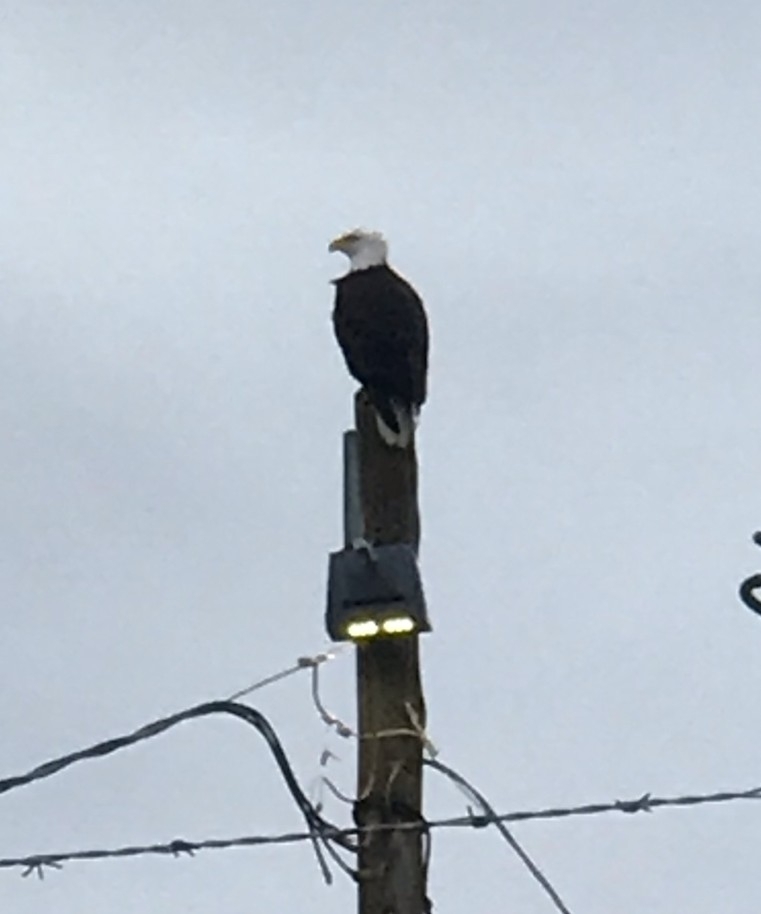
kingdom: Animalia
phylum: Chordata
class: Aves
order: Accipitriformes
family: Accipitridae
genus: Haliaeetus
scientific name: Haliaeetus leucocephalus
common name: Bald eagle
